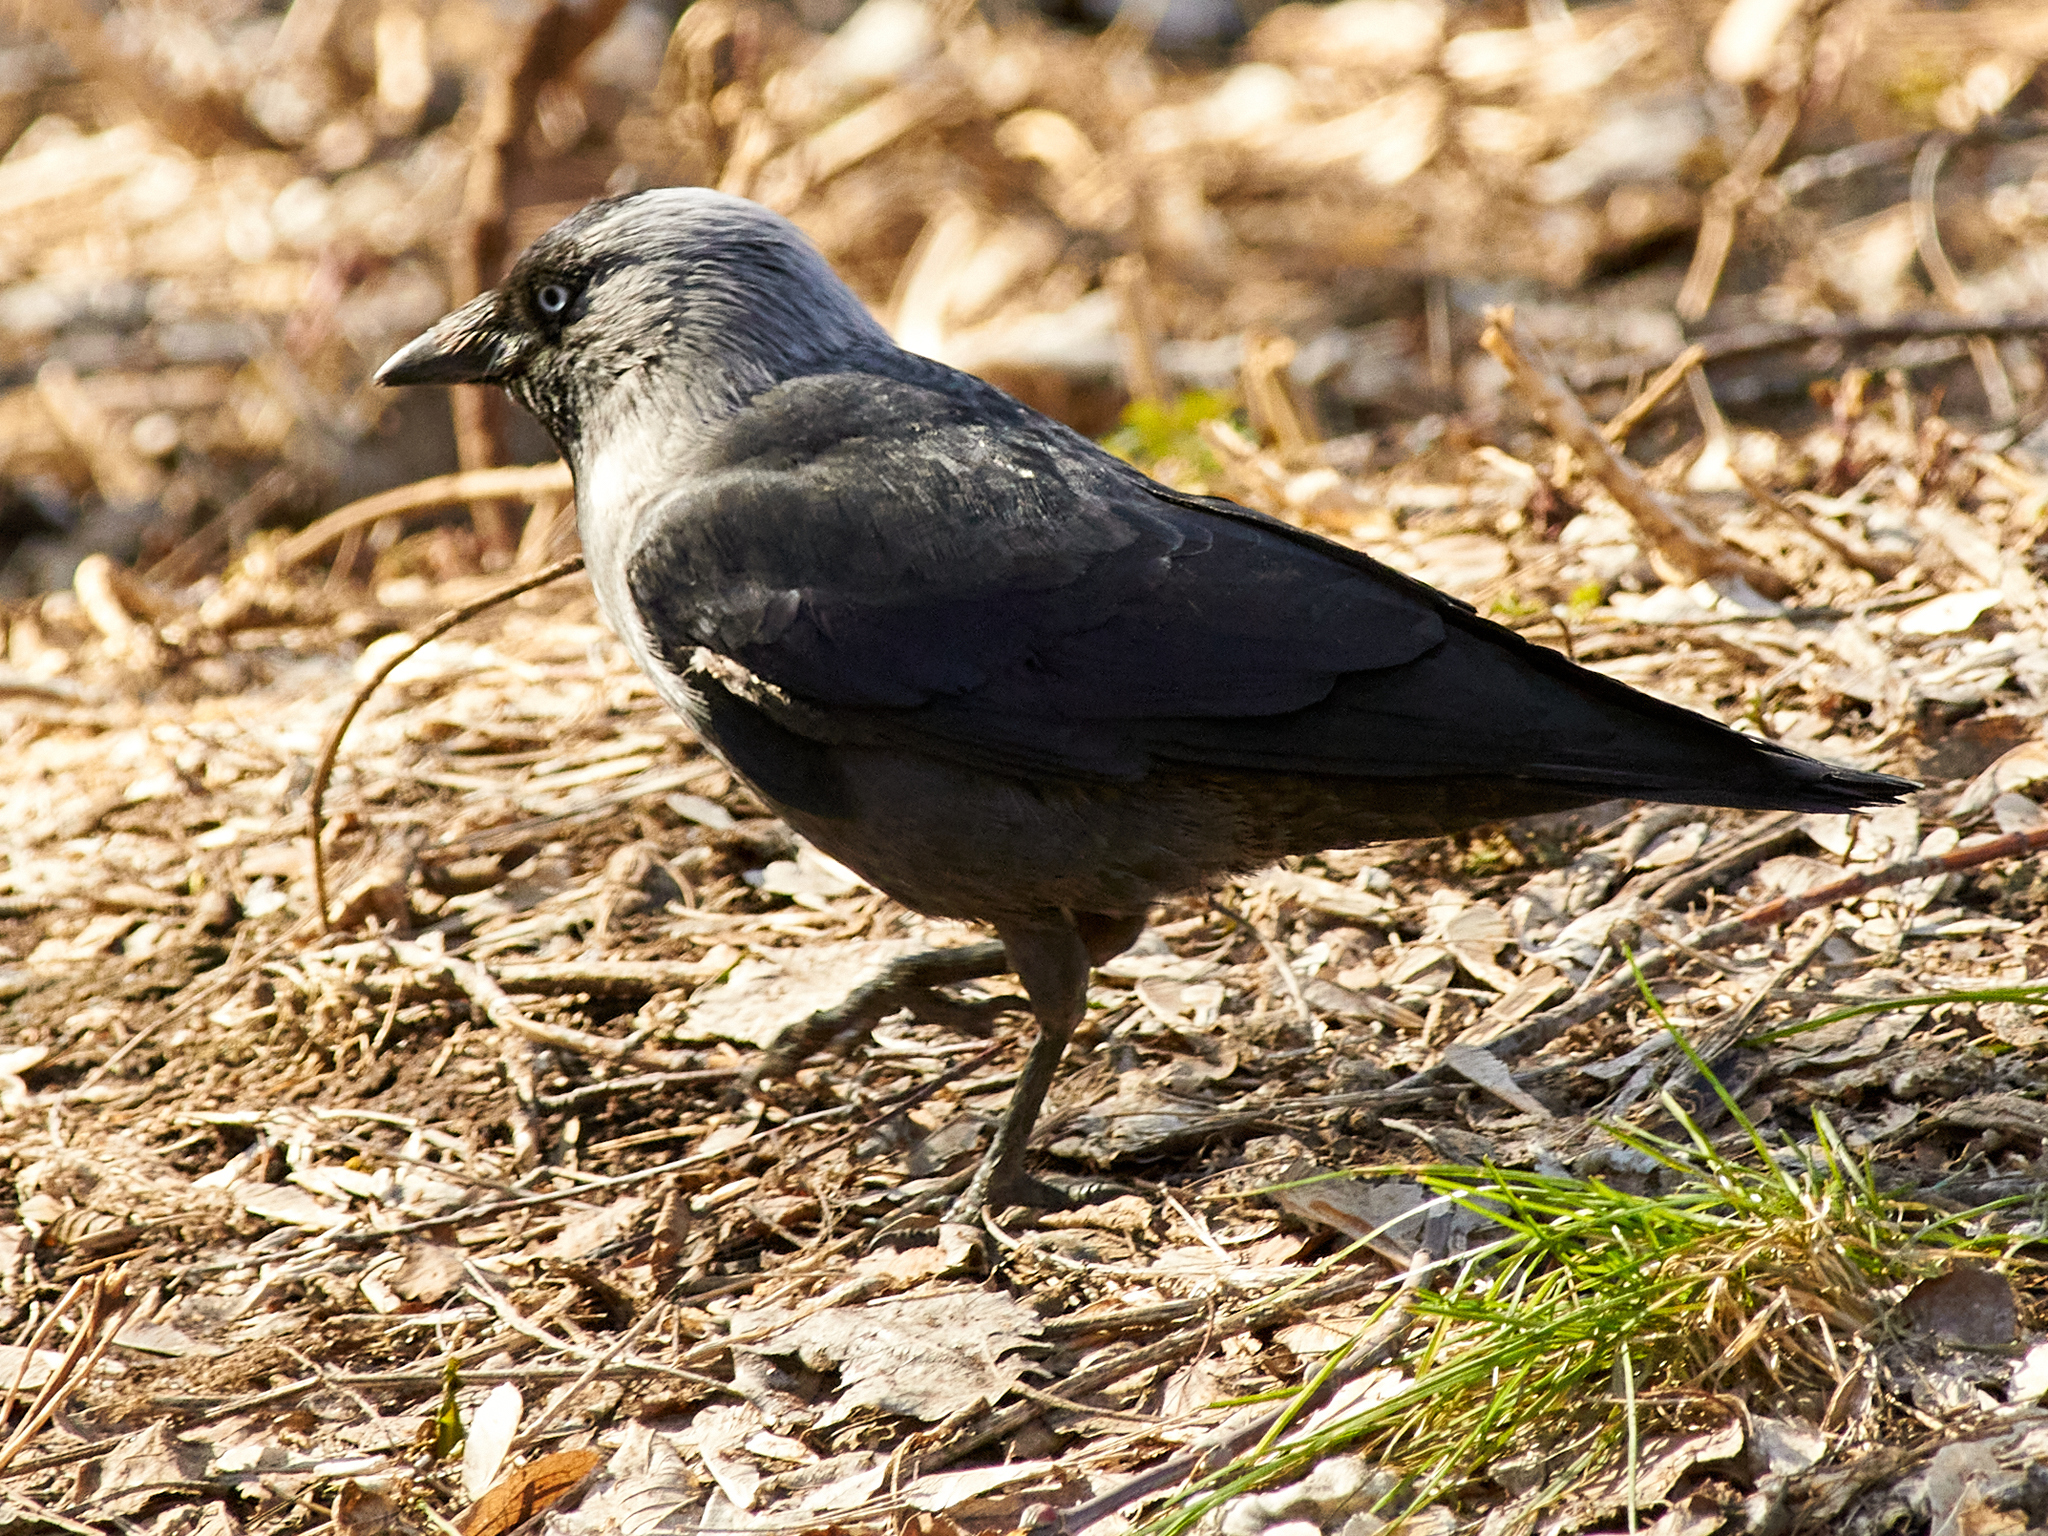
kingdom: Animalia
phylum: Chordata
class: Aves
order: Passeriformes
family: Corvidae
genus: Coloeus
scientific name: Coloeus monedula
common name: Western jackdaw
